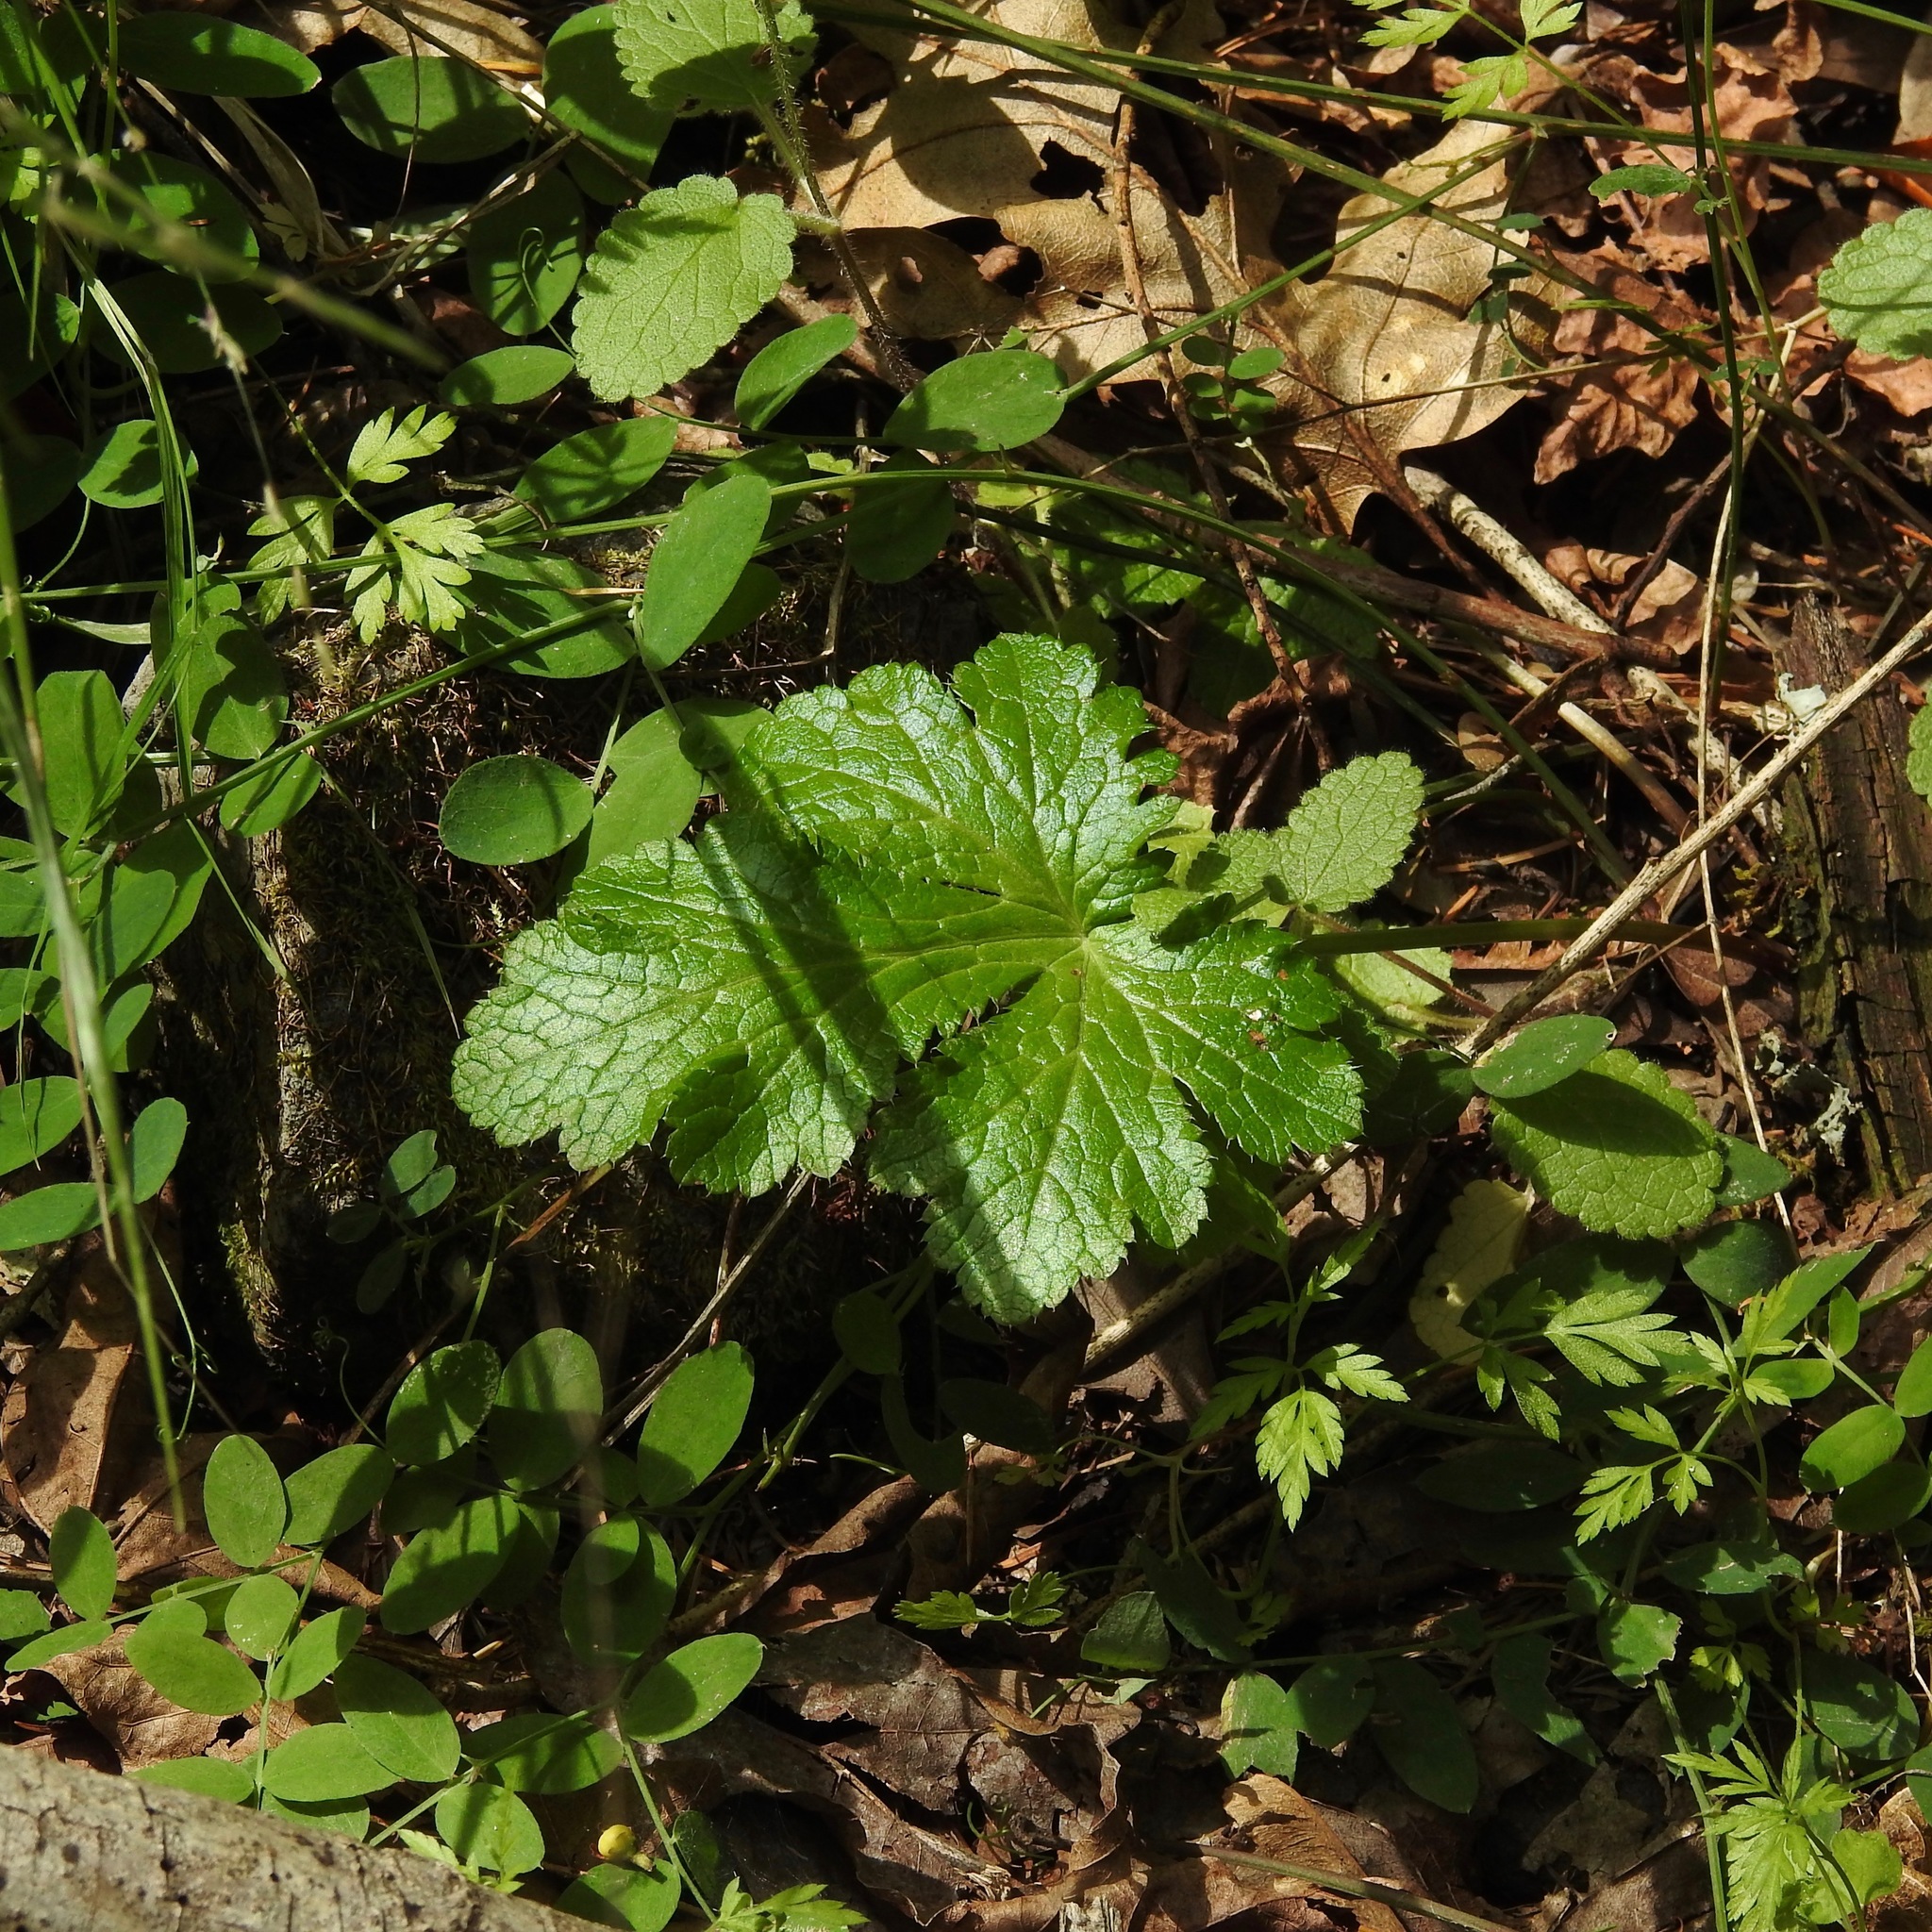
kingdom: Plantae
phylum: Tracheophyta
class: Magnoliopsida
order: Apiales
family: Apiaceae
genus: Sanicula
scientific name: Sanicula crassicaulis
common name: Western snakeroot
